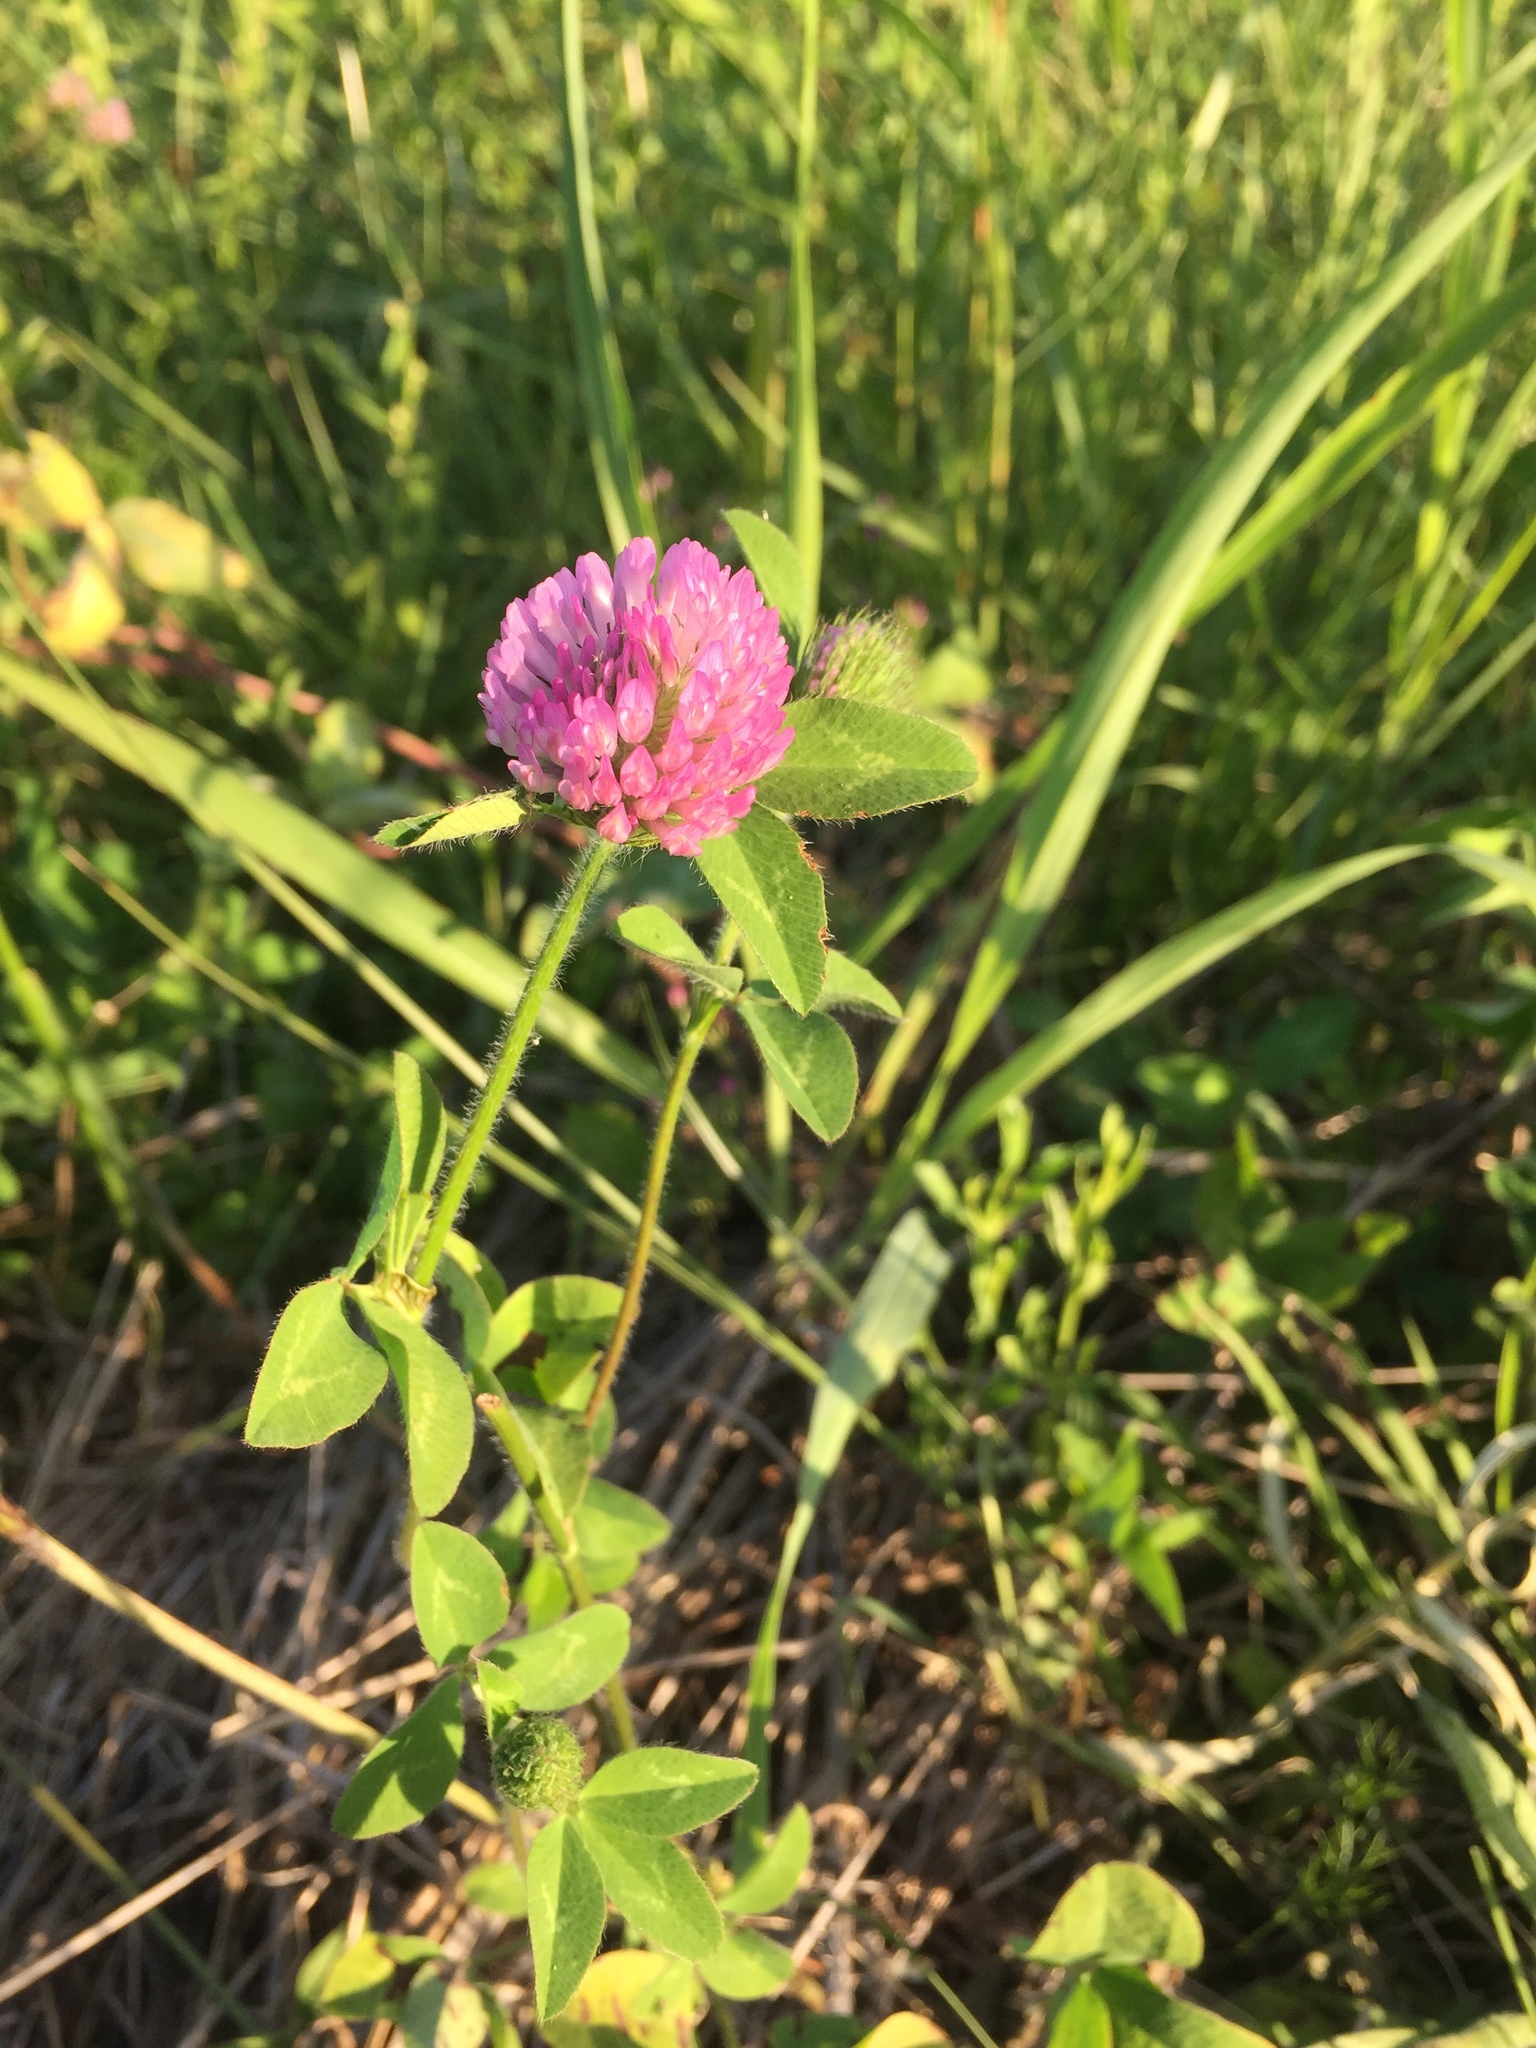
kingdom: Plantae
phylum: Tracheophyta
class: Magnoliopsida
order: Fabales
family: Fabaceae
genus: Trifolium
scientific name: Trifolium pratense
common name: Red clover
